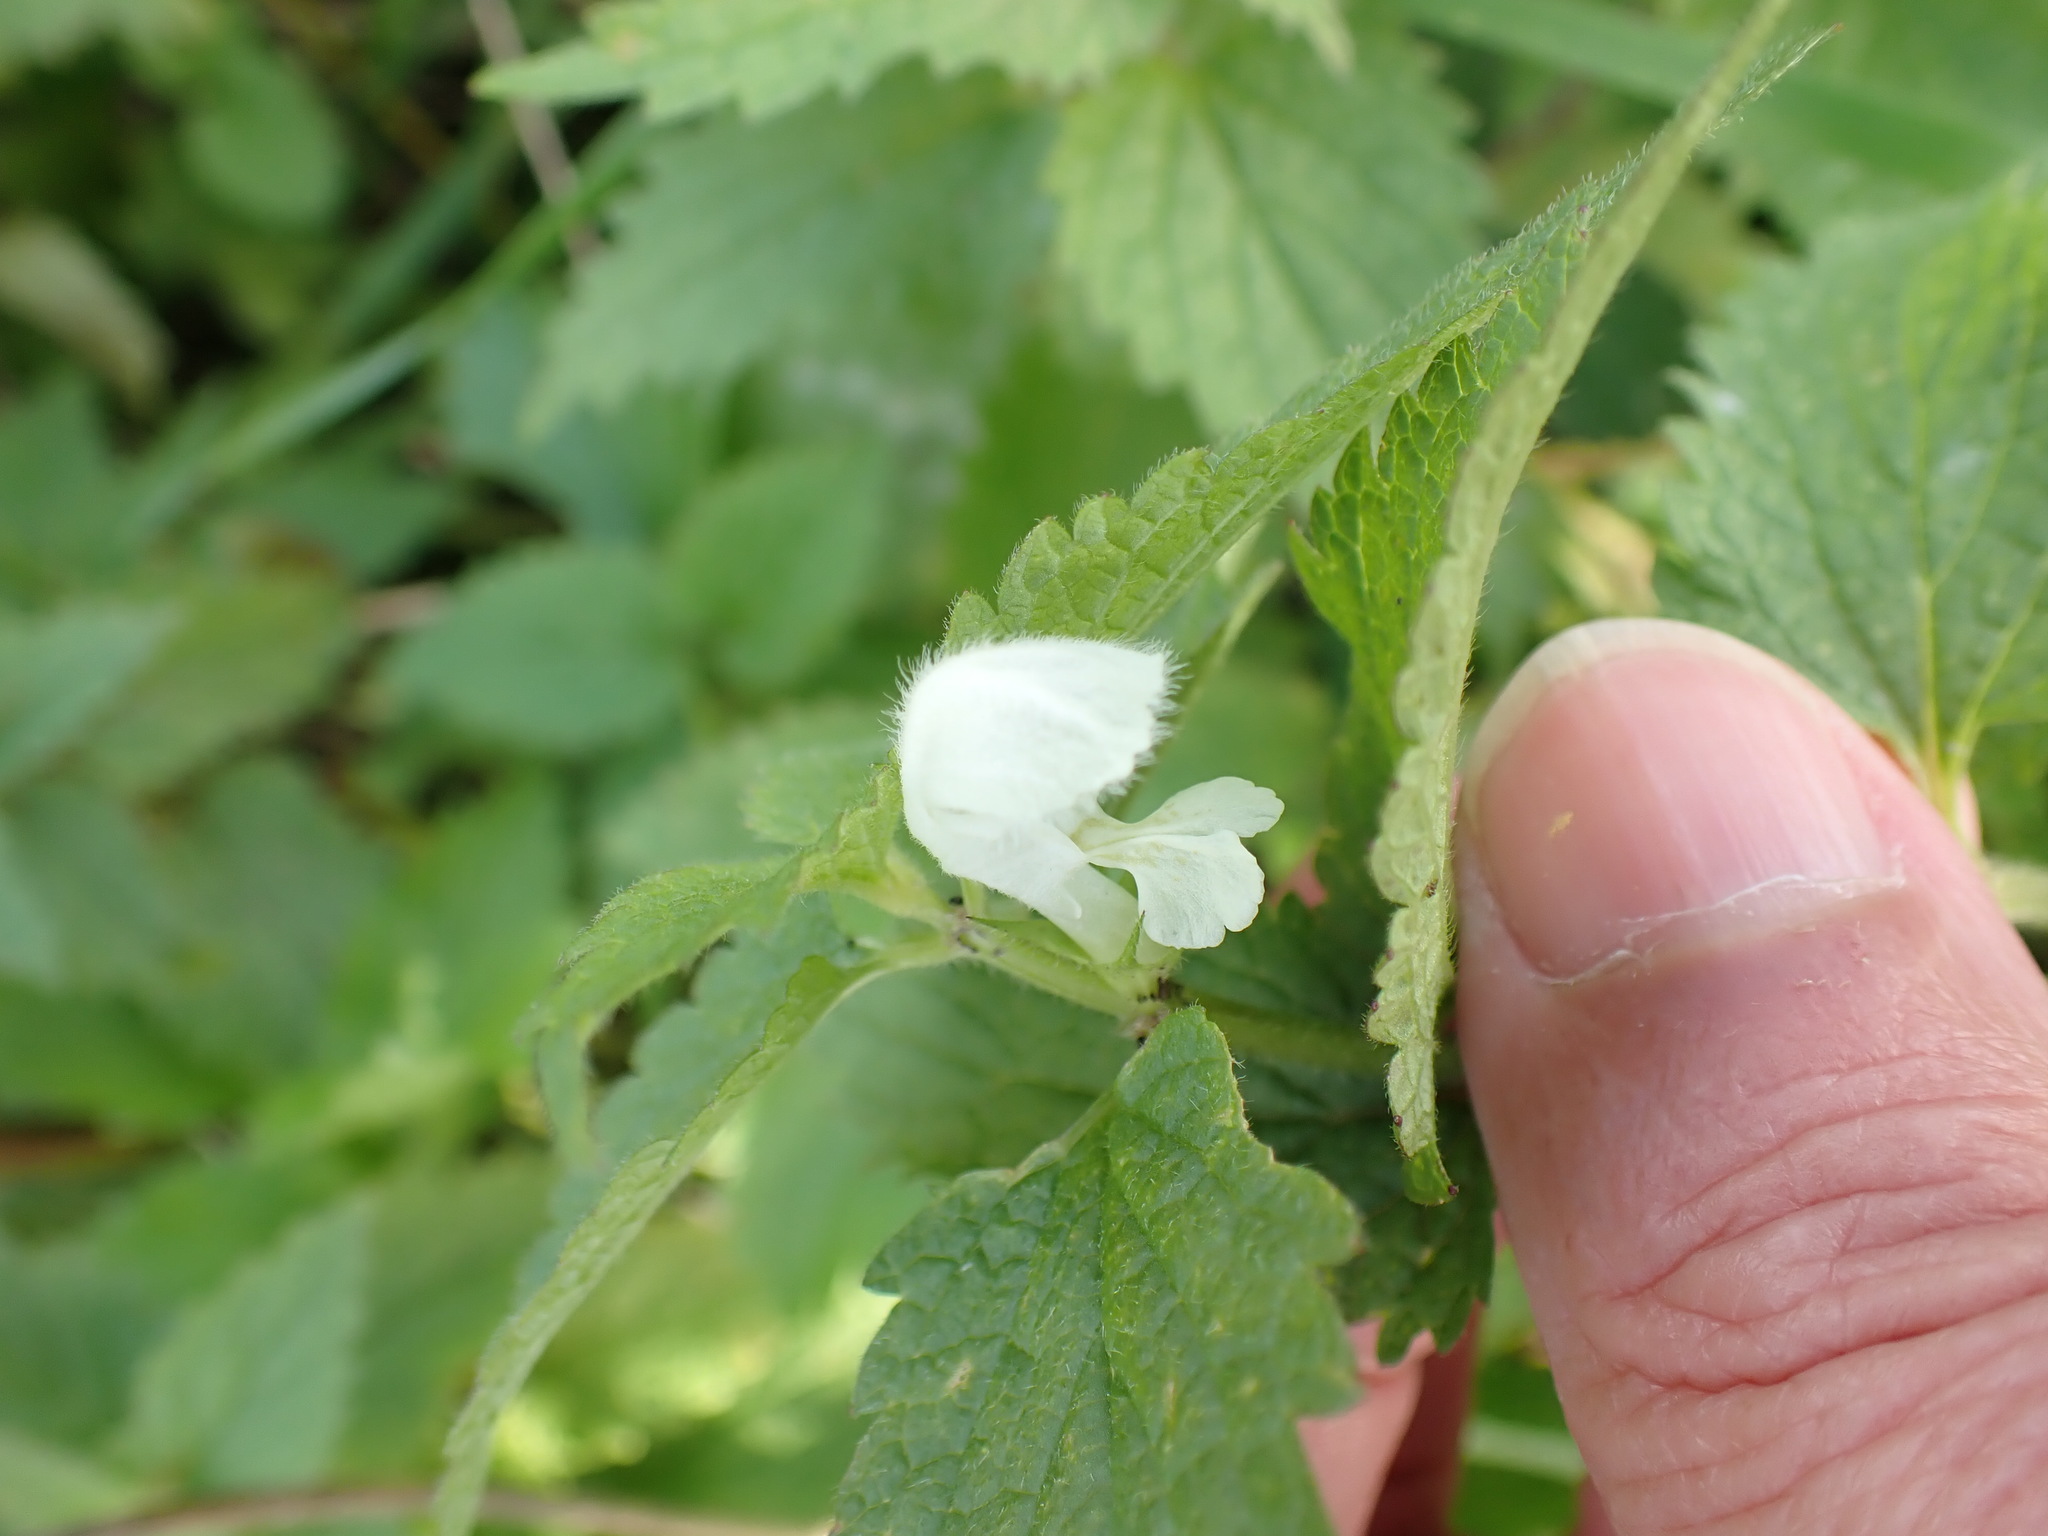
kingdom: Plantae
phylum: Tracheophyta
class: Magnoliopsida
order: Lamiales
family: Lamiaceae
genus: Lamium
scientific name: Lamium album
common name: White dead-nettle
